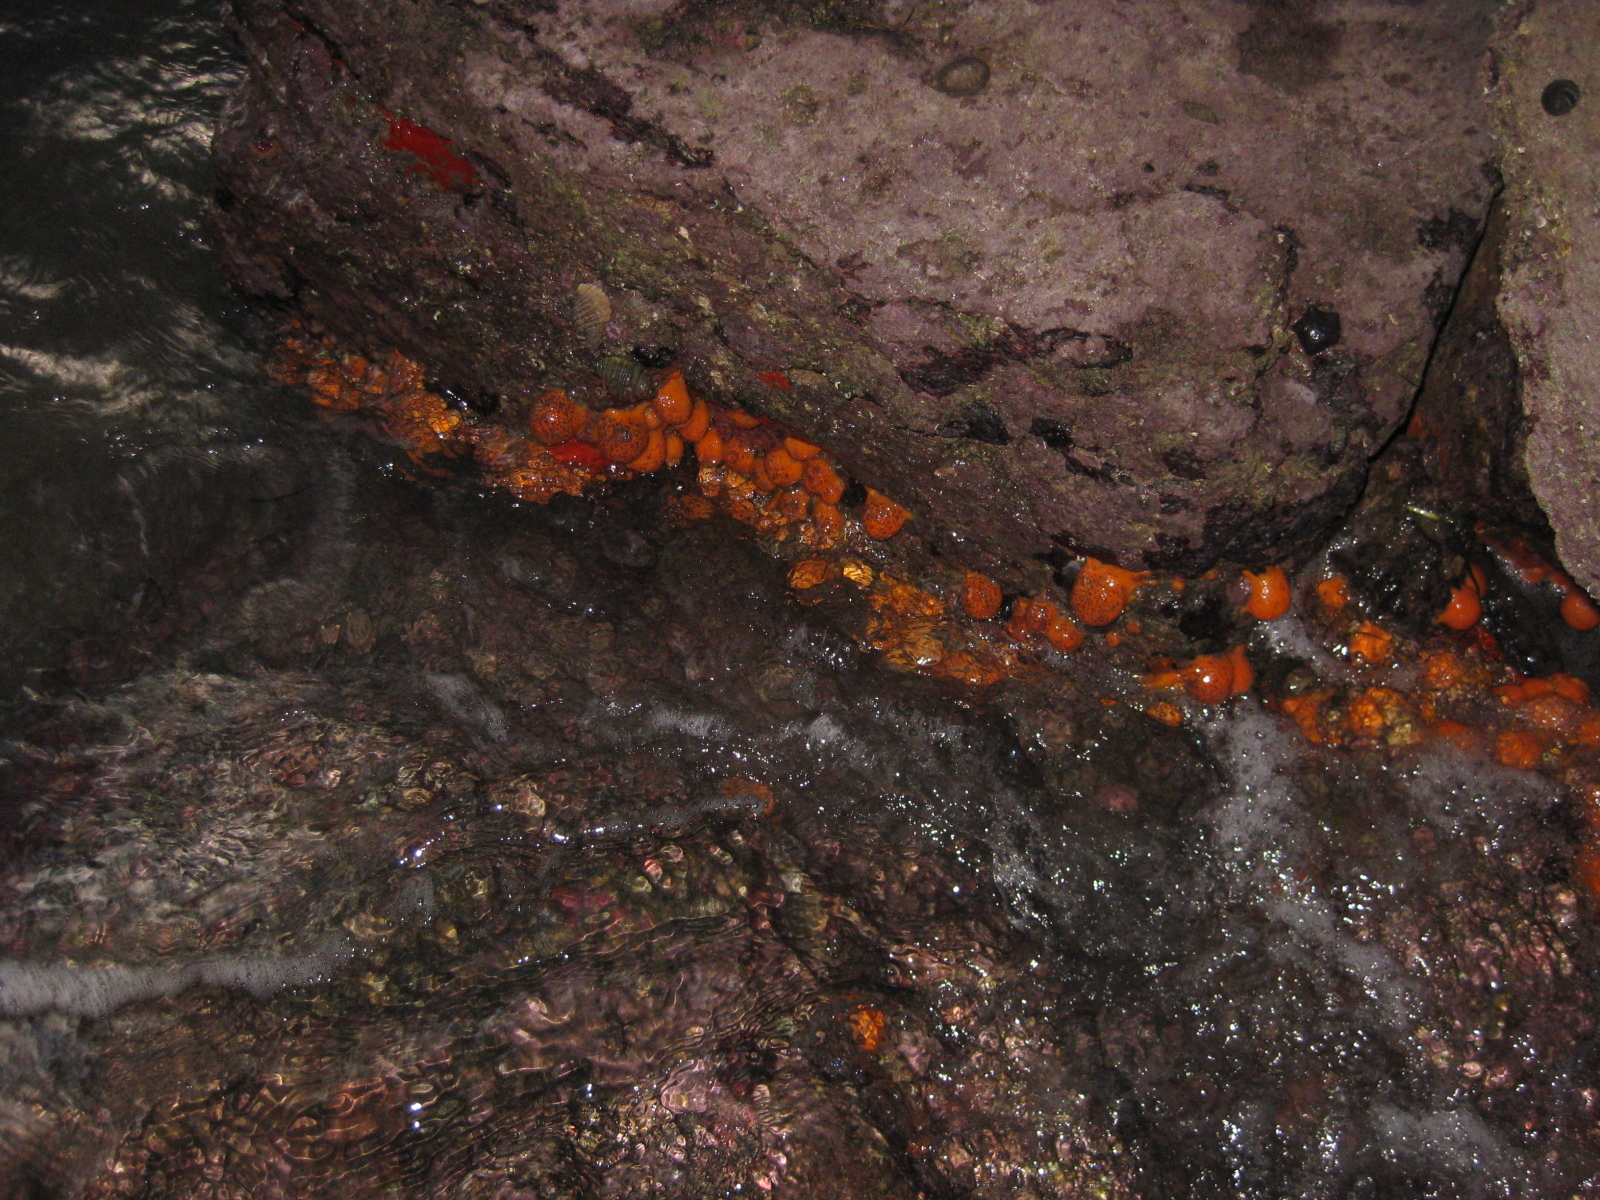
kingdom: Animalia
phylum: Porifera
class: Demospongiae
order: Tethyida
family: Tethyidae
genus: Tethya
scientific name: Tethya burtoni
